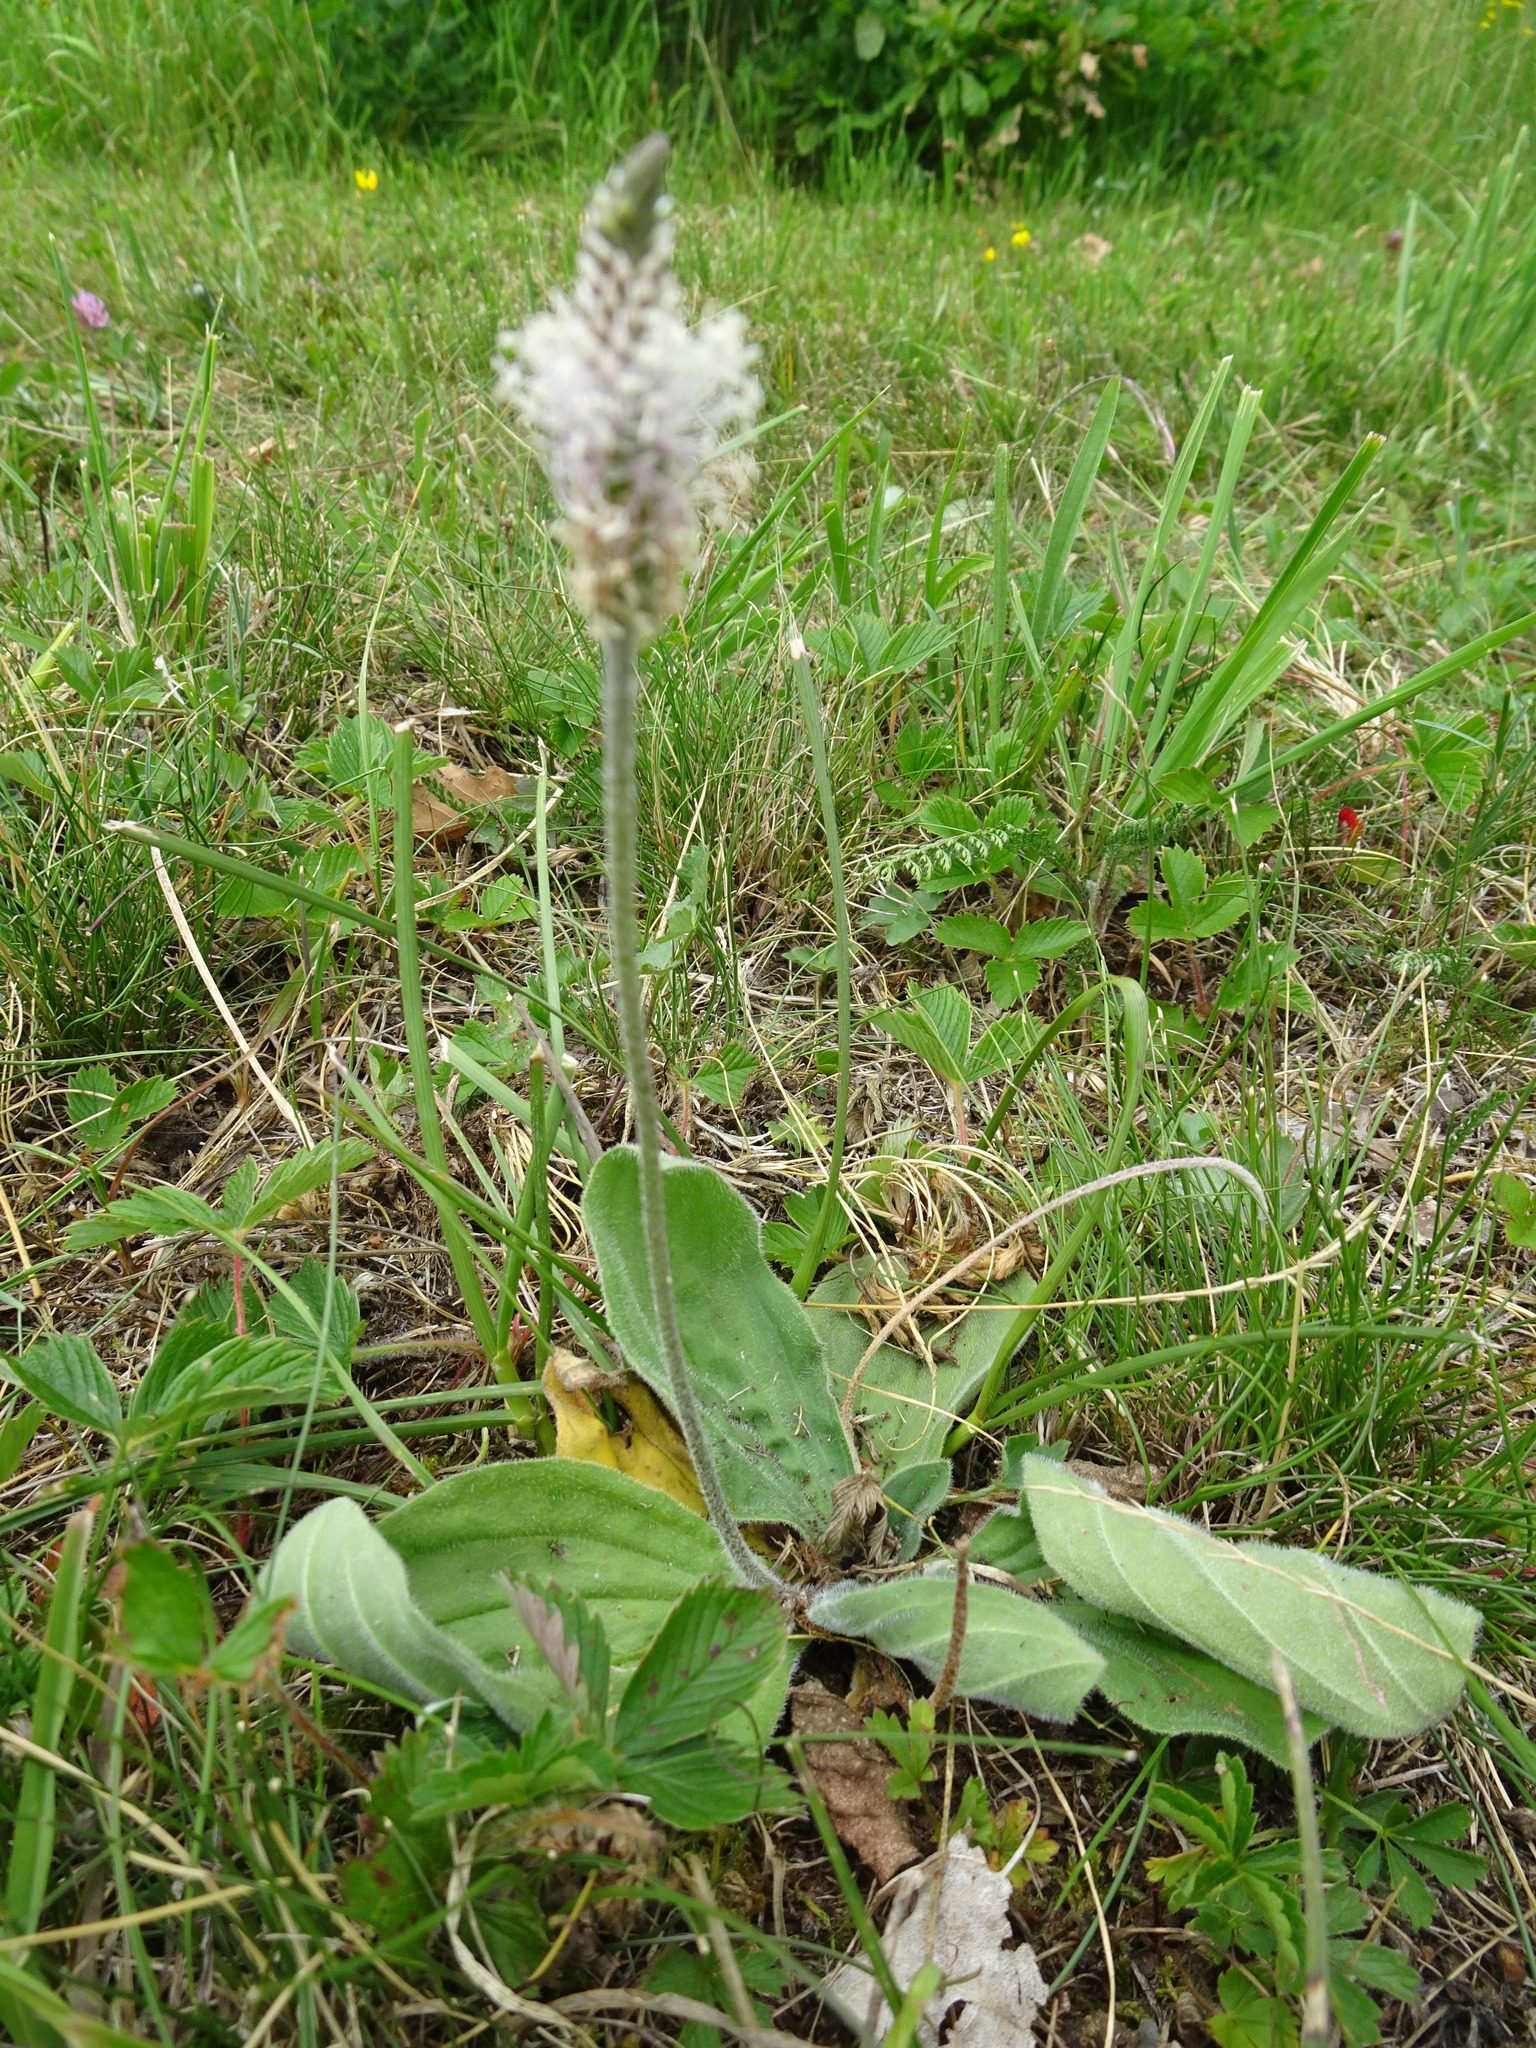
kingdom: Plantae
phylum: Tracheophyta
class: Magnoliopsida
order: Lamiales
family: Plantaginaceae
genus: Plantago
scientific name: Plantago media
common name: Hoary plantain
